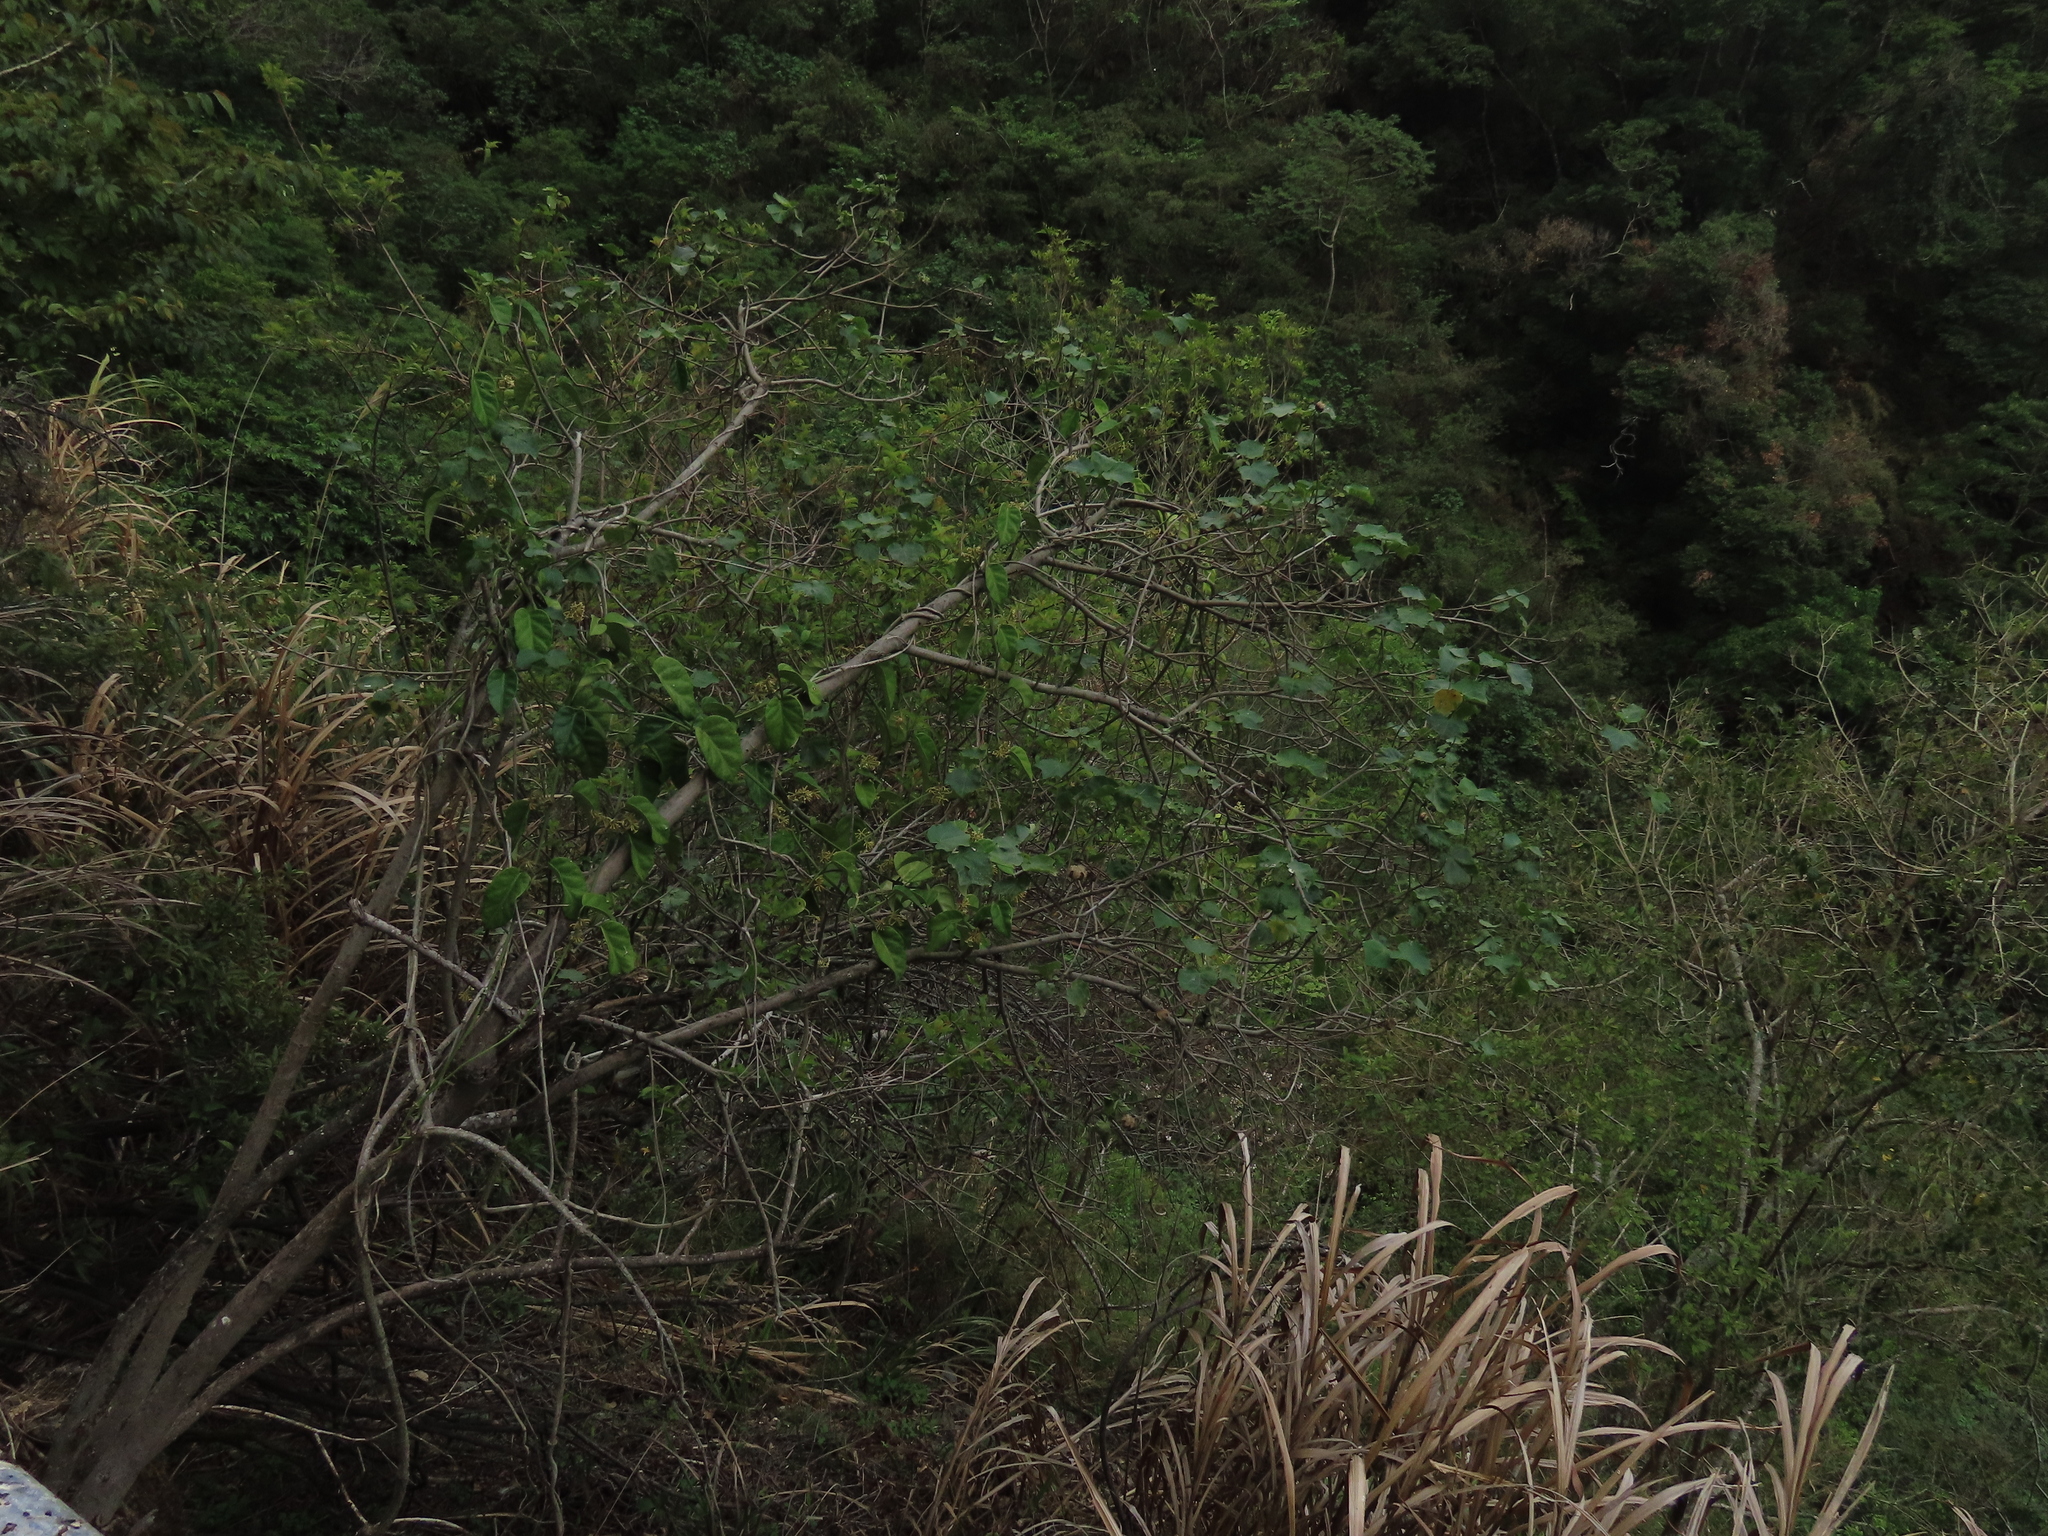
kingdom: Plantae
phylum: Tracheophyta
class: Magnoliopsida
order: Malvales
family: Malvaceae
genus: Hibiscus
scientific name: Hibiscus taiwanensis
